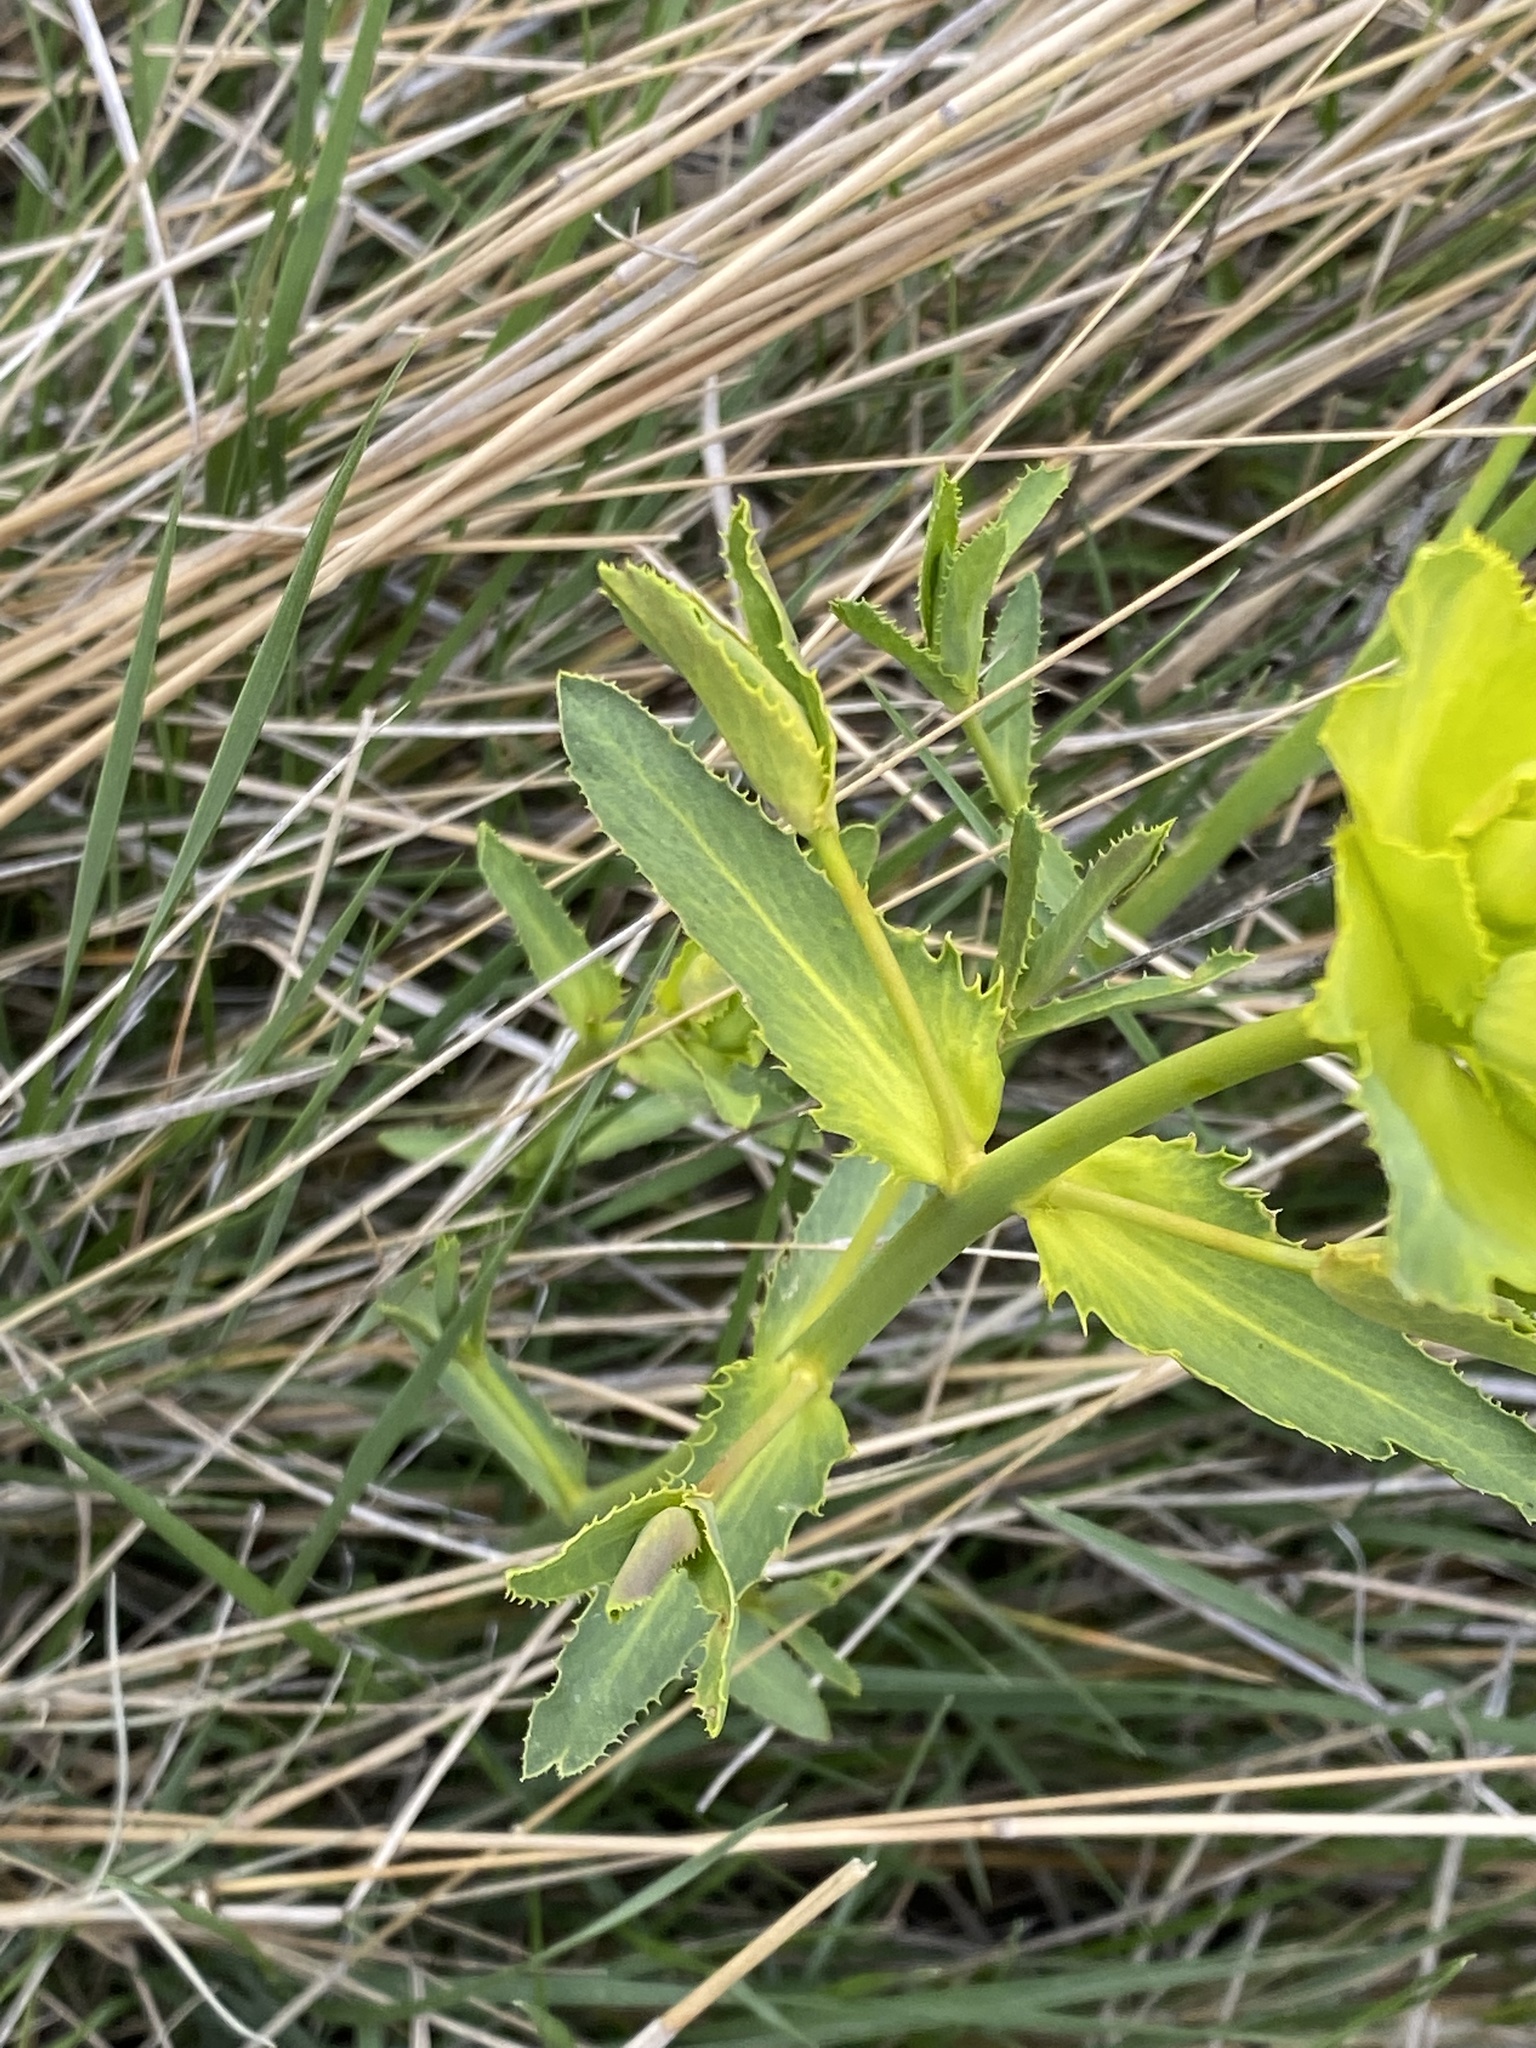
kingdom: Plantae
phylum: Tracheophyta
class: Magnoliopsida
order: Malpighiales
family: Euphorbiaceae
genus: Euphorbia
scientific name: Euphorbia serrata
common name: Serrate spurge
